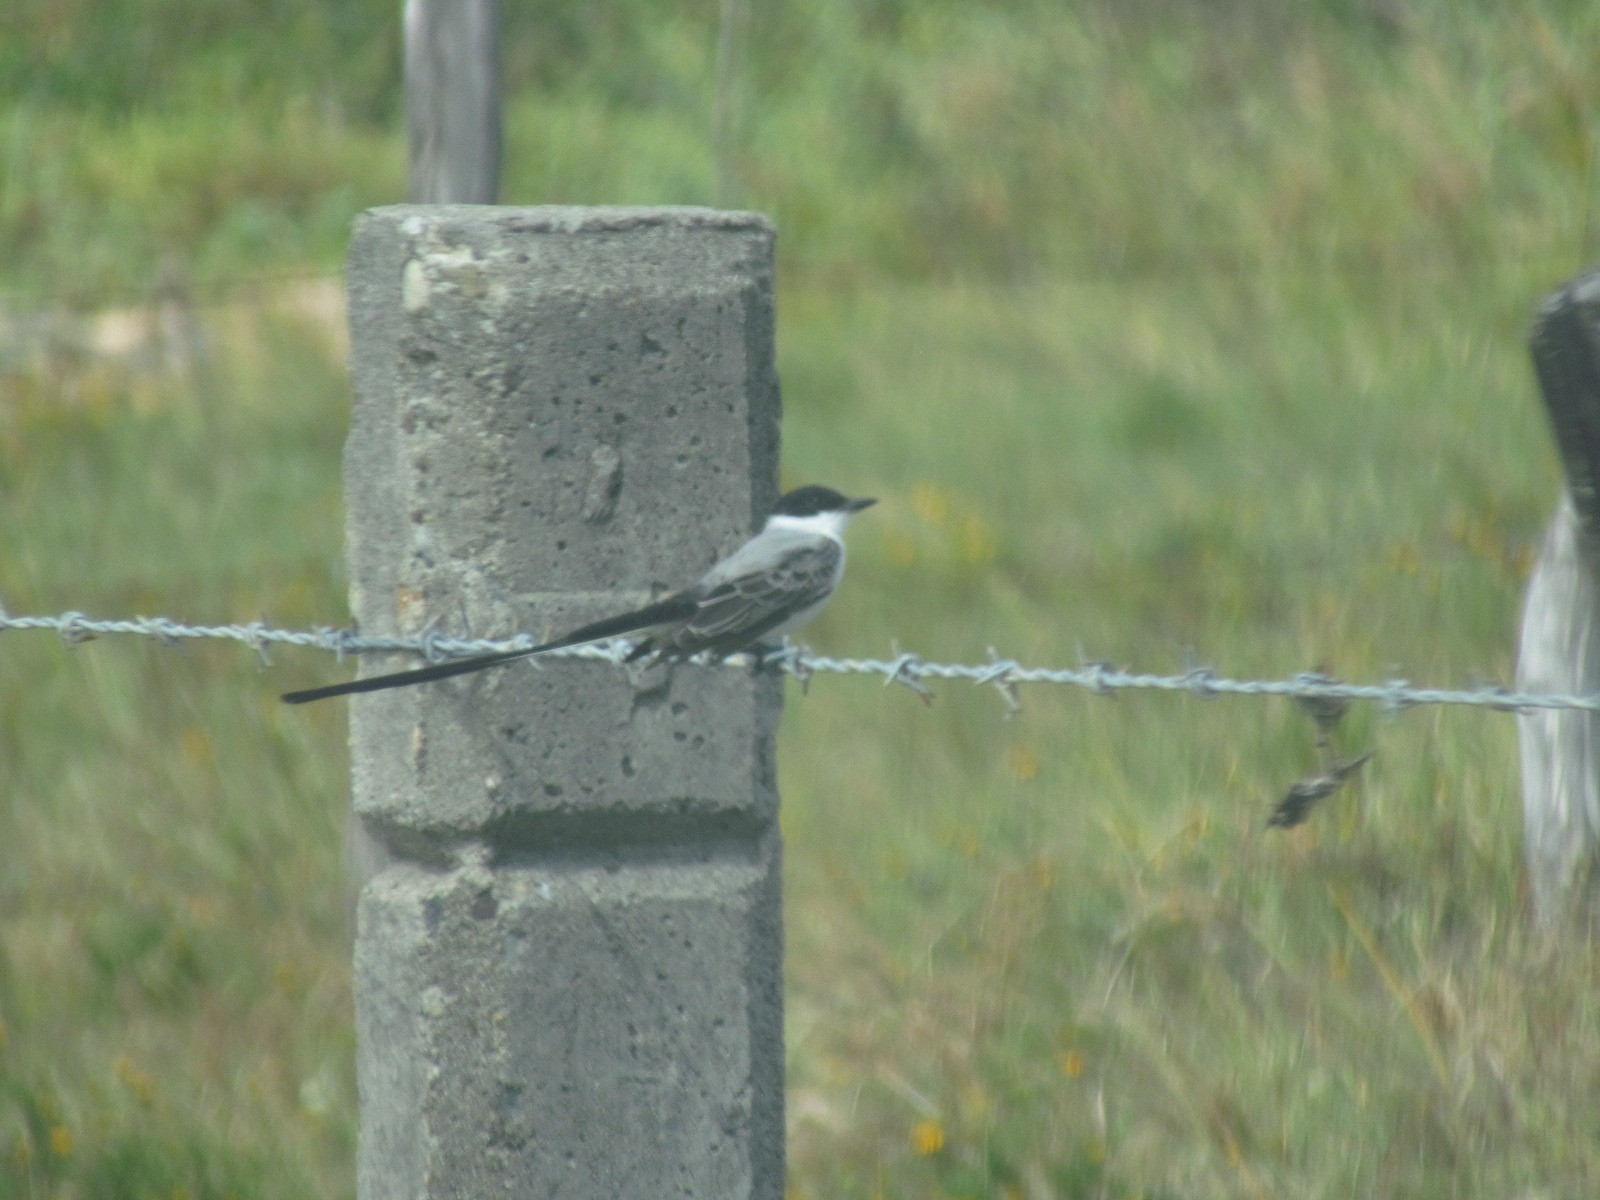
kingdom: Animalia
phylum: Chordata
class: Aves
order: Passeriformes
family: Tyrannidae
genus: Tyrannus
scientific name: Tyrannus savana
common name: Fork-tailed flycatcher
